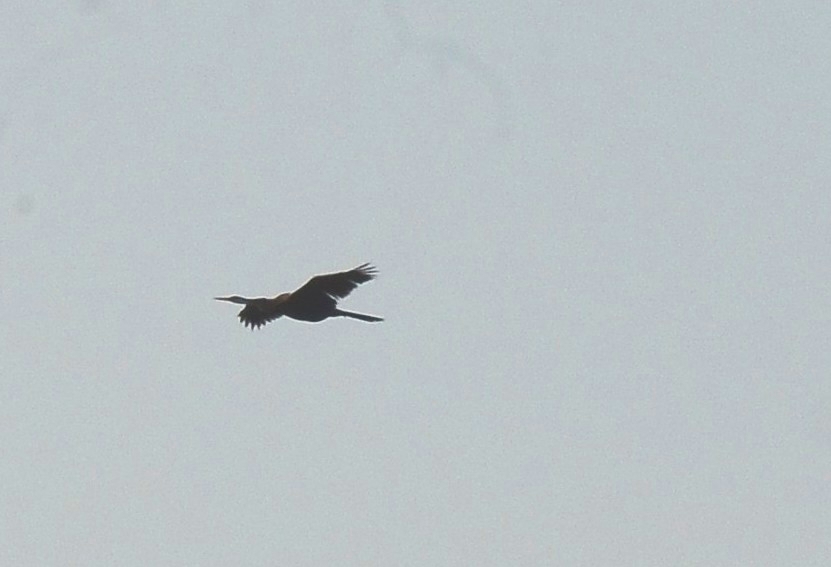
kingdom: Animalia
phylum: Chordata
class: Aves
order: Suliformes
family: Anhingidae
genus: Anhinga
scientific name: Anhinga melanogaster
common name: Oriental darter
